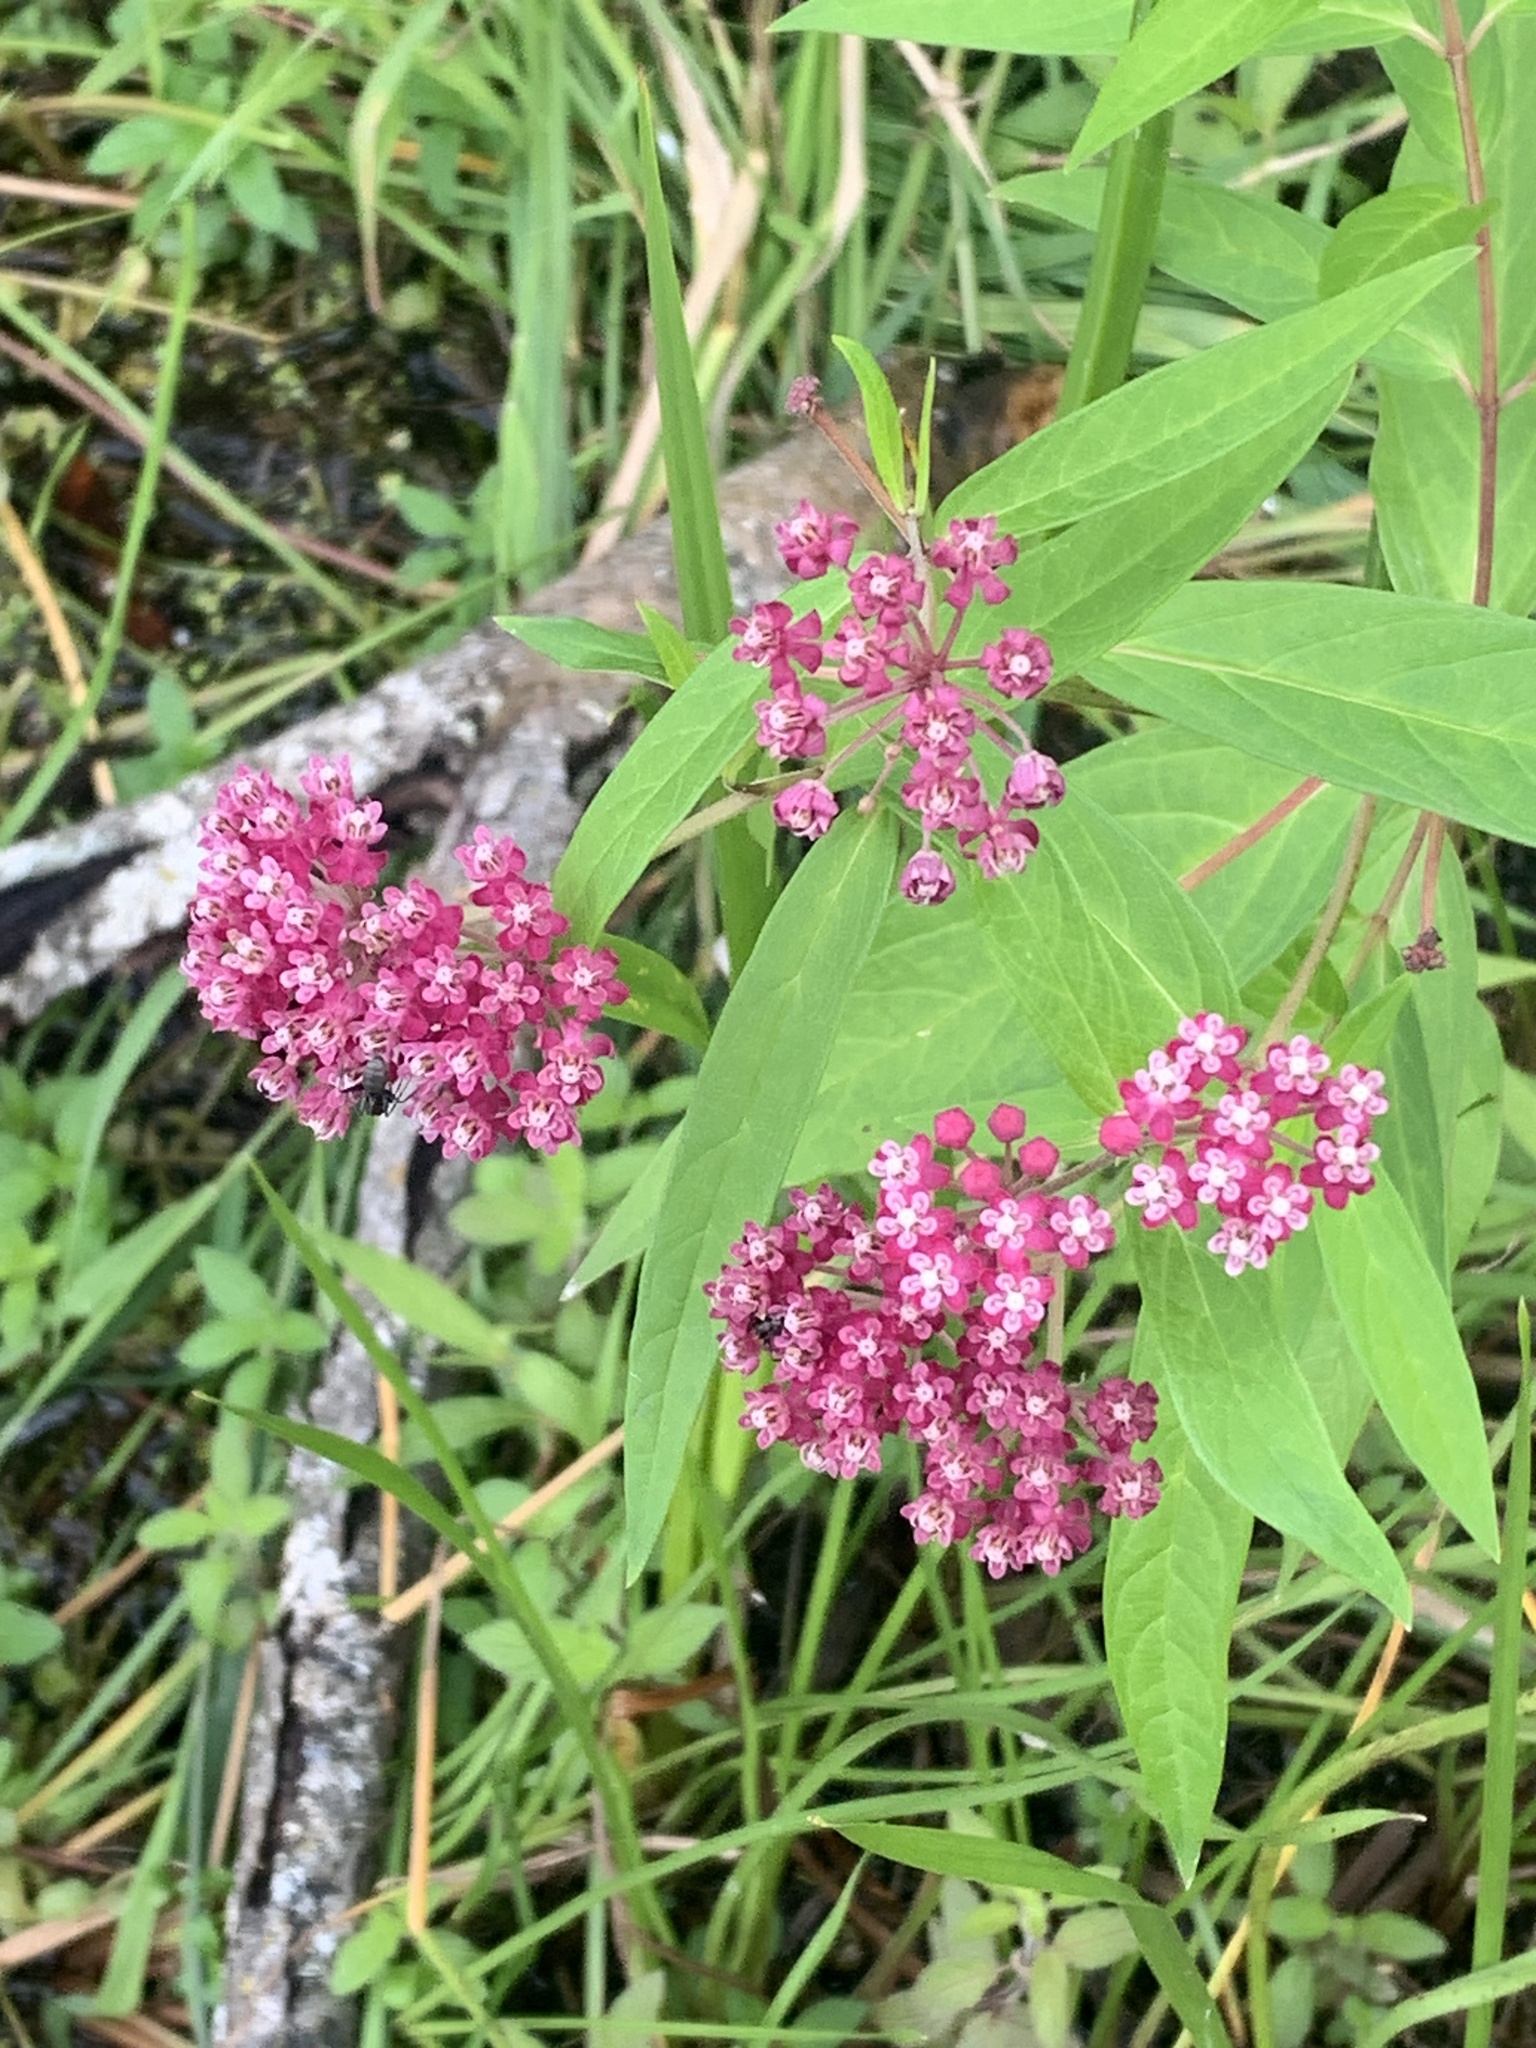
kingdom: Plantae
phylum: Tracheophyta
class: Magnoliopsida
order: Gentianales
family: Apocynaceae
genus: Asclepias
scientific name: Asclepias incarnata
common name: Swamp milkweed
